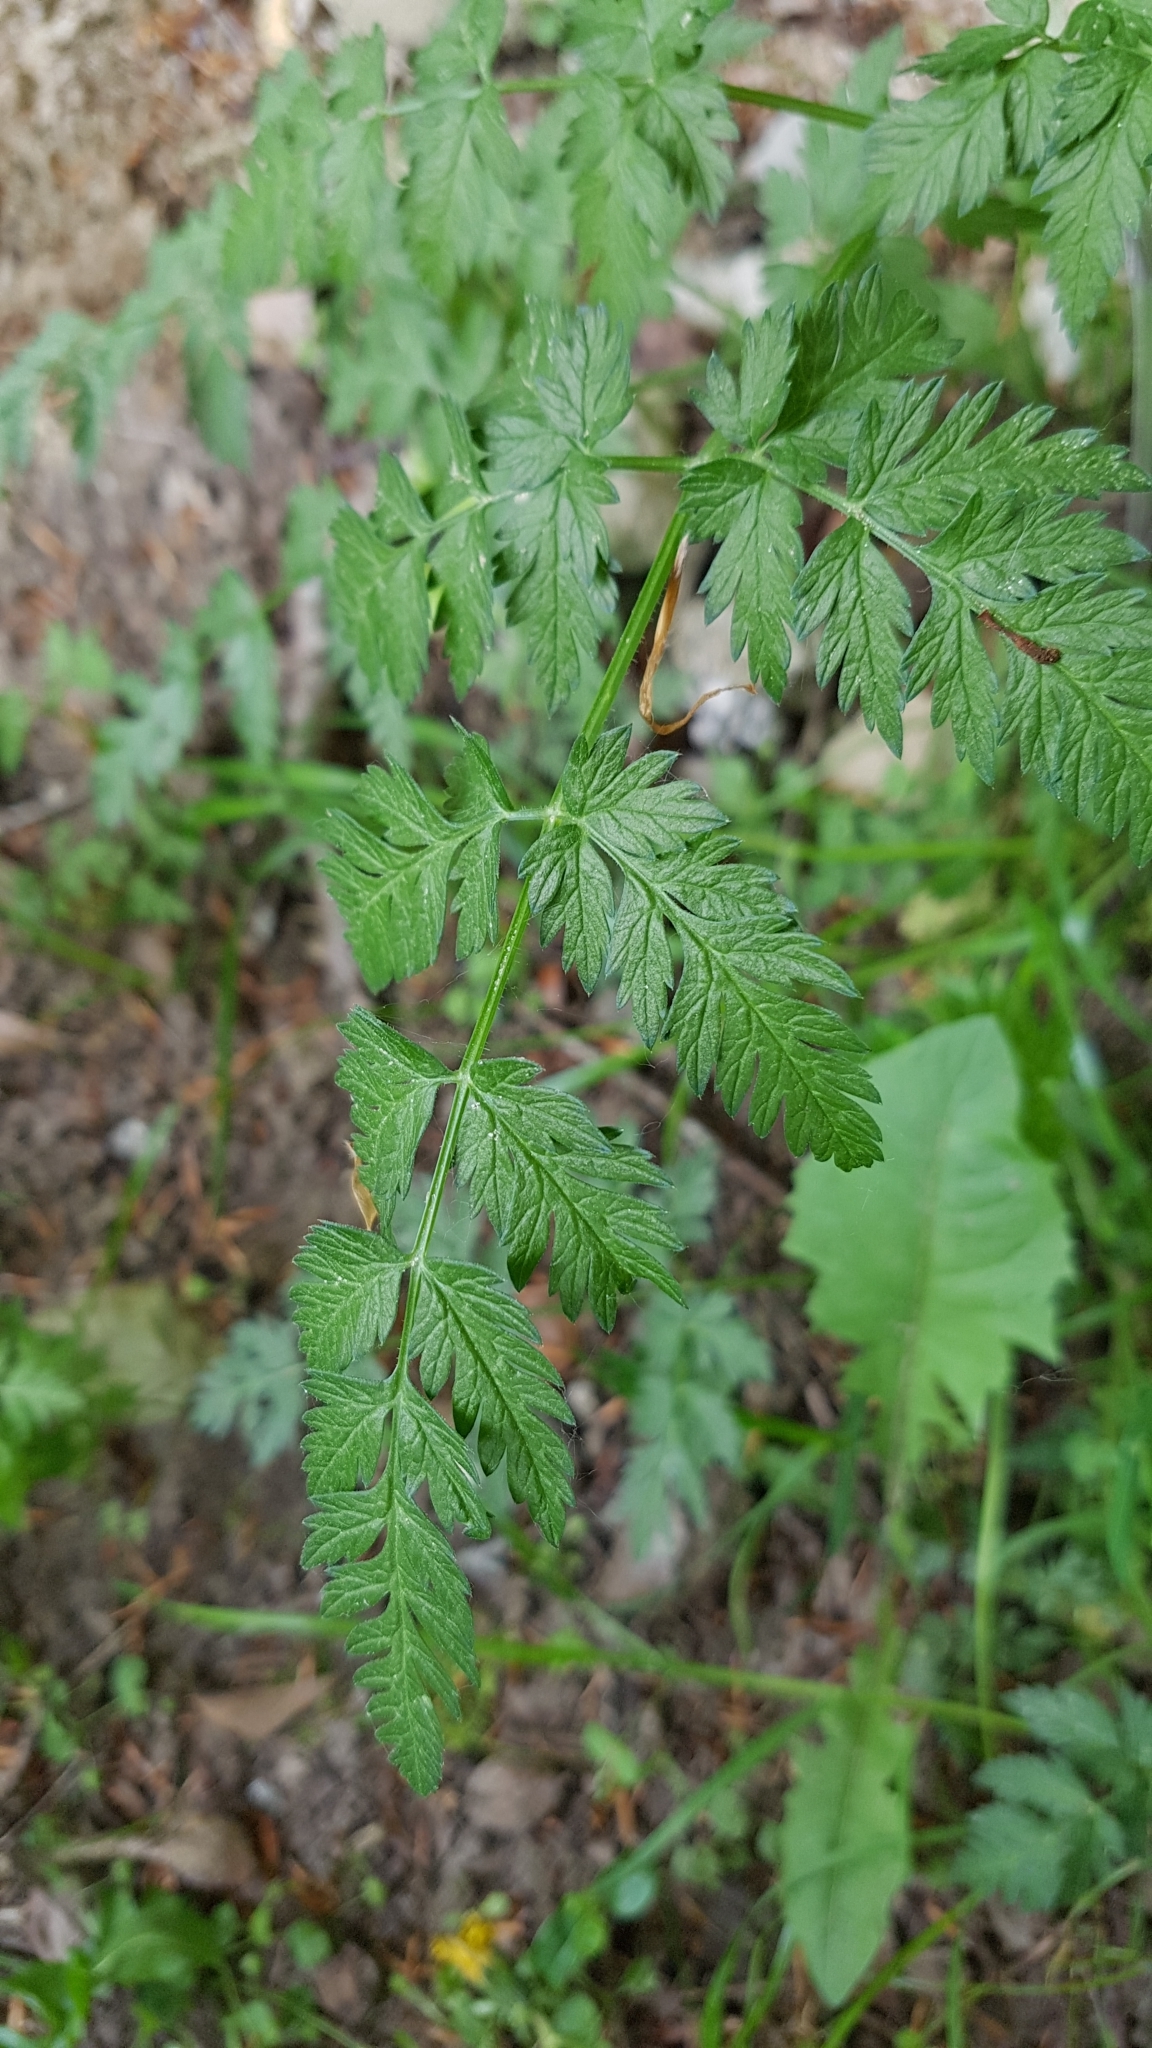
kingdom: Plantae
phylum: Tracheophyta
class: Magnoliopsida
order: Apiales
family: Apiaceae
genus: Anthriscus
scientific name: Anthriscus sylvestris
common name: Cow parsley
